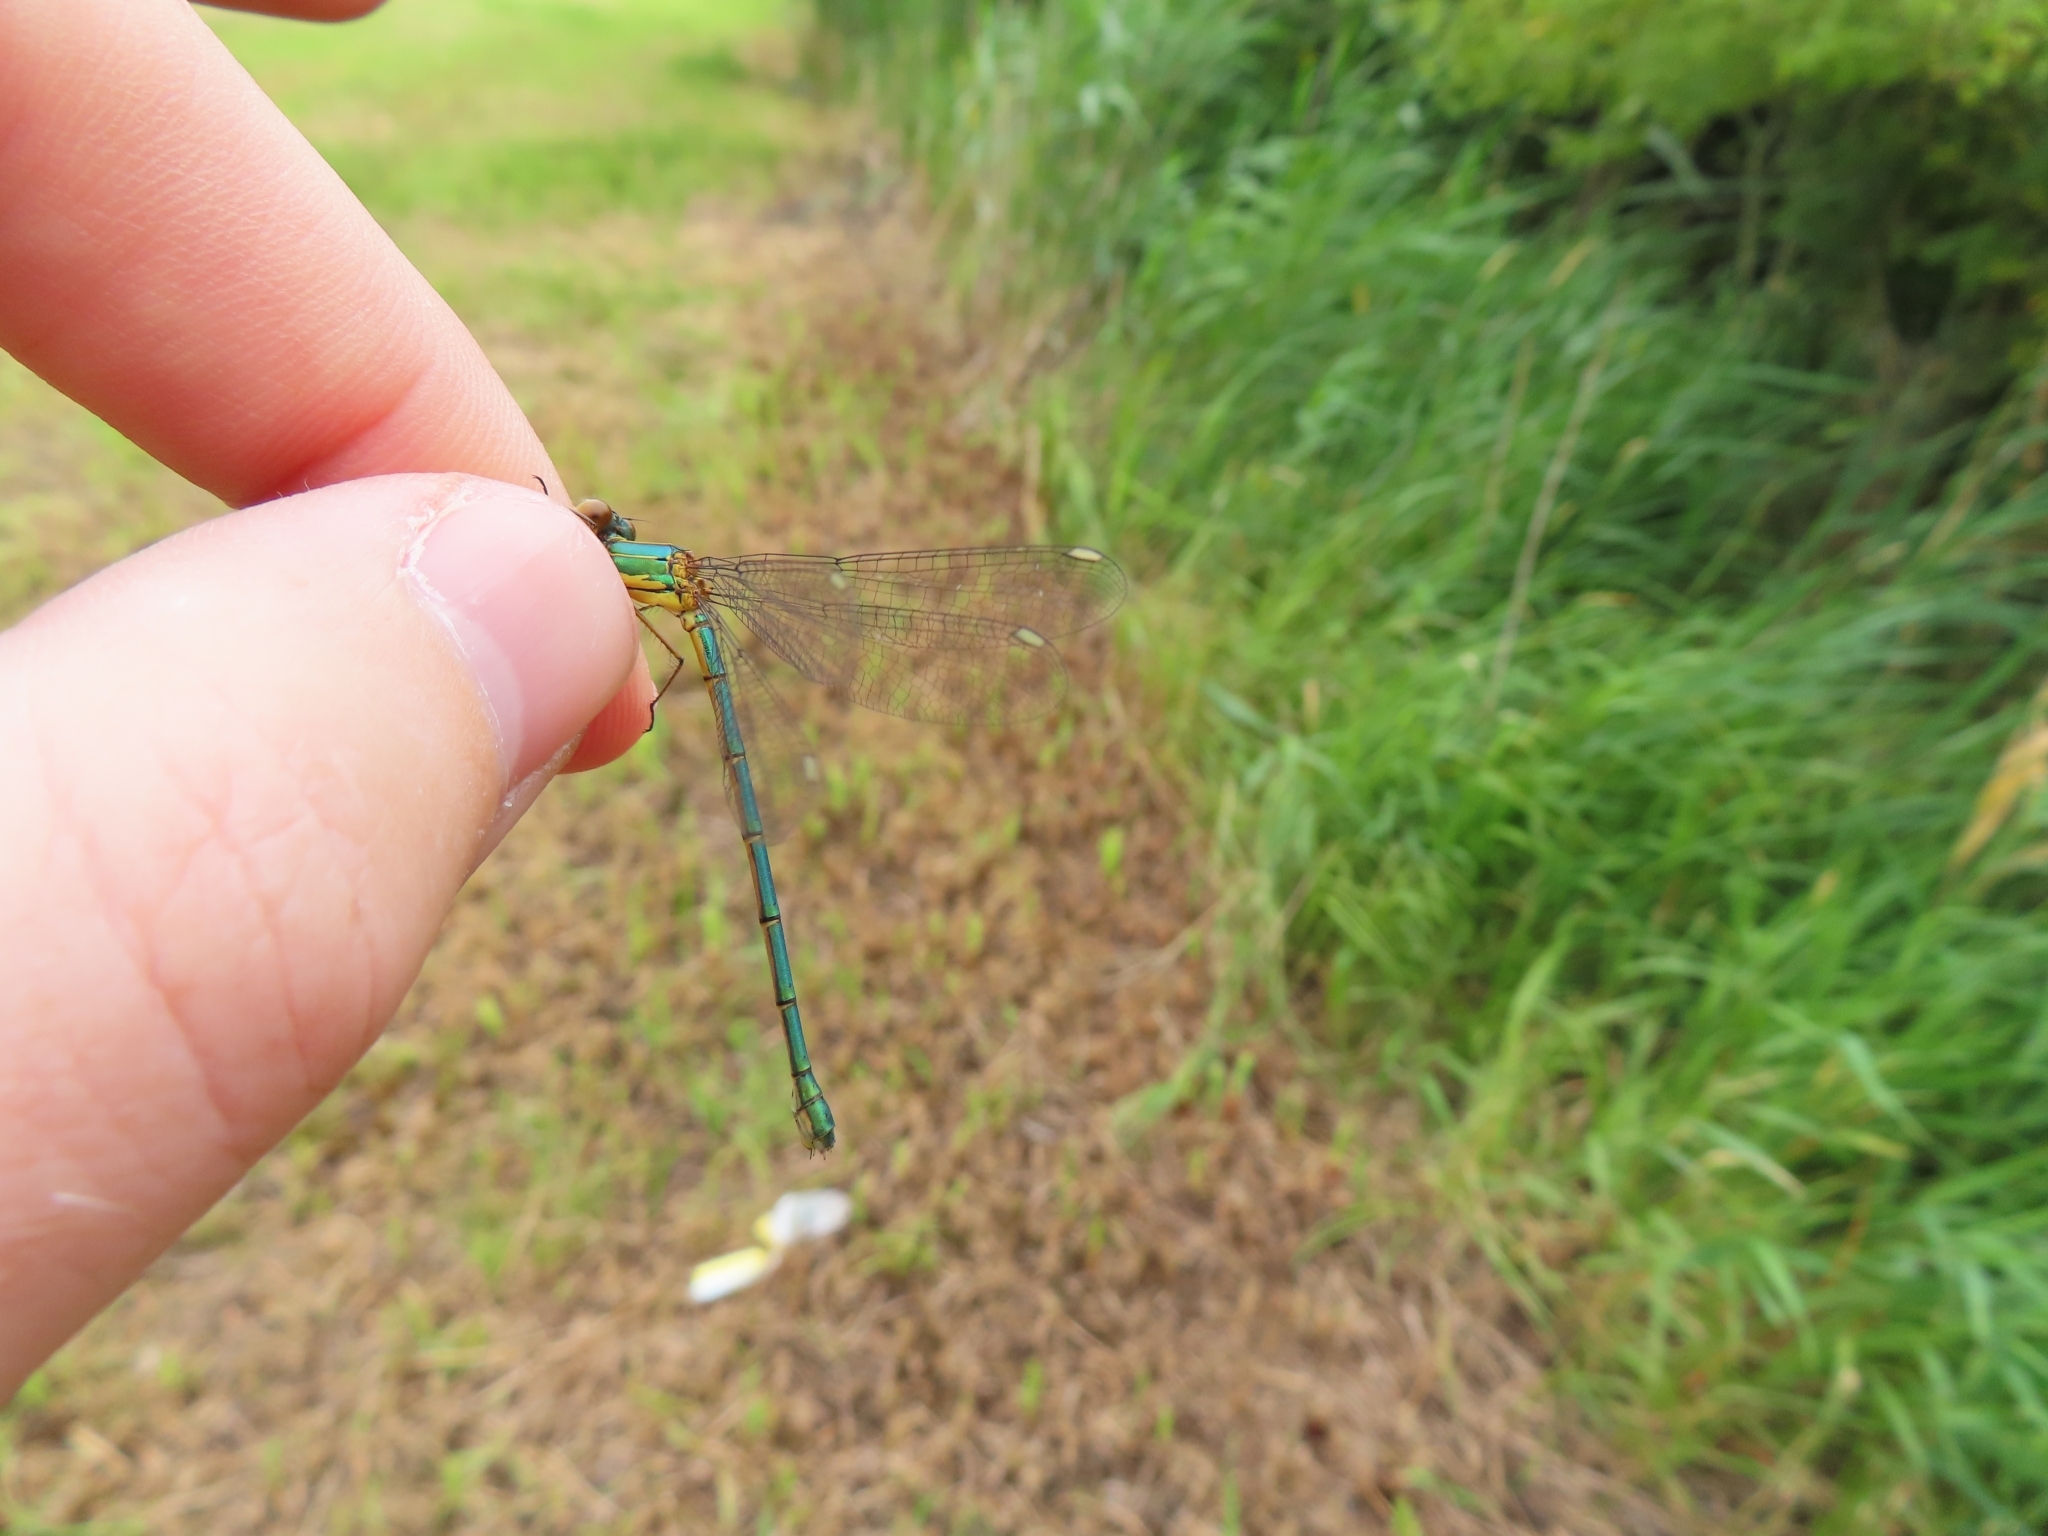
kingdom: Animalia
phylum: Arthropoda
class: Insecta
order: Odonata
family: Lestidae
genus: Chalcolestes
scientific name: Chalcolestes viridis
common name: Green emerald damselfly
